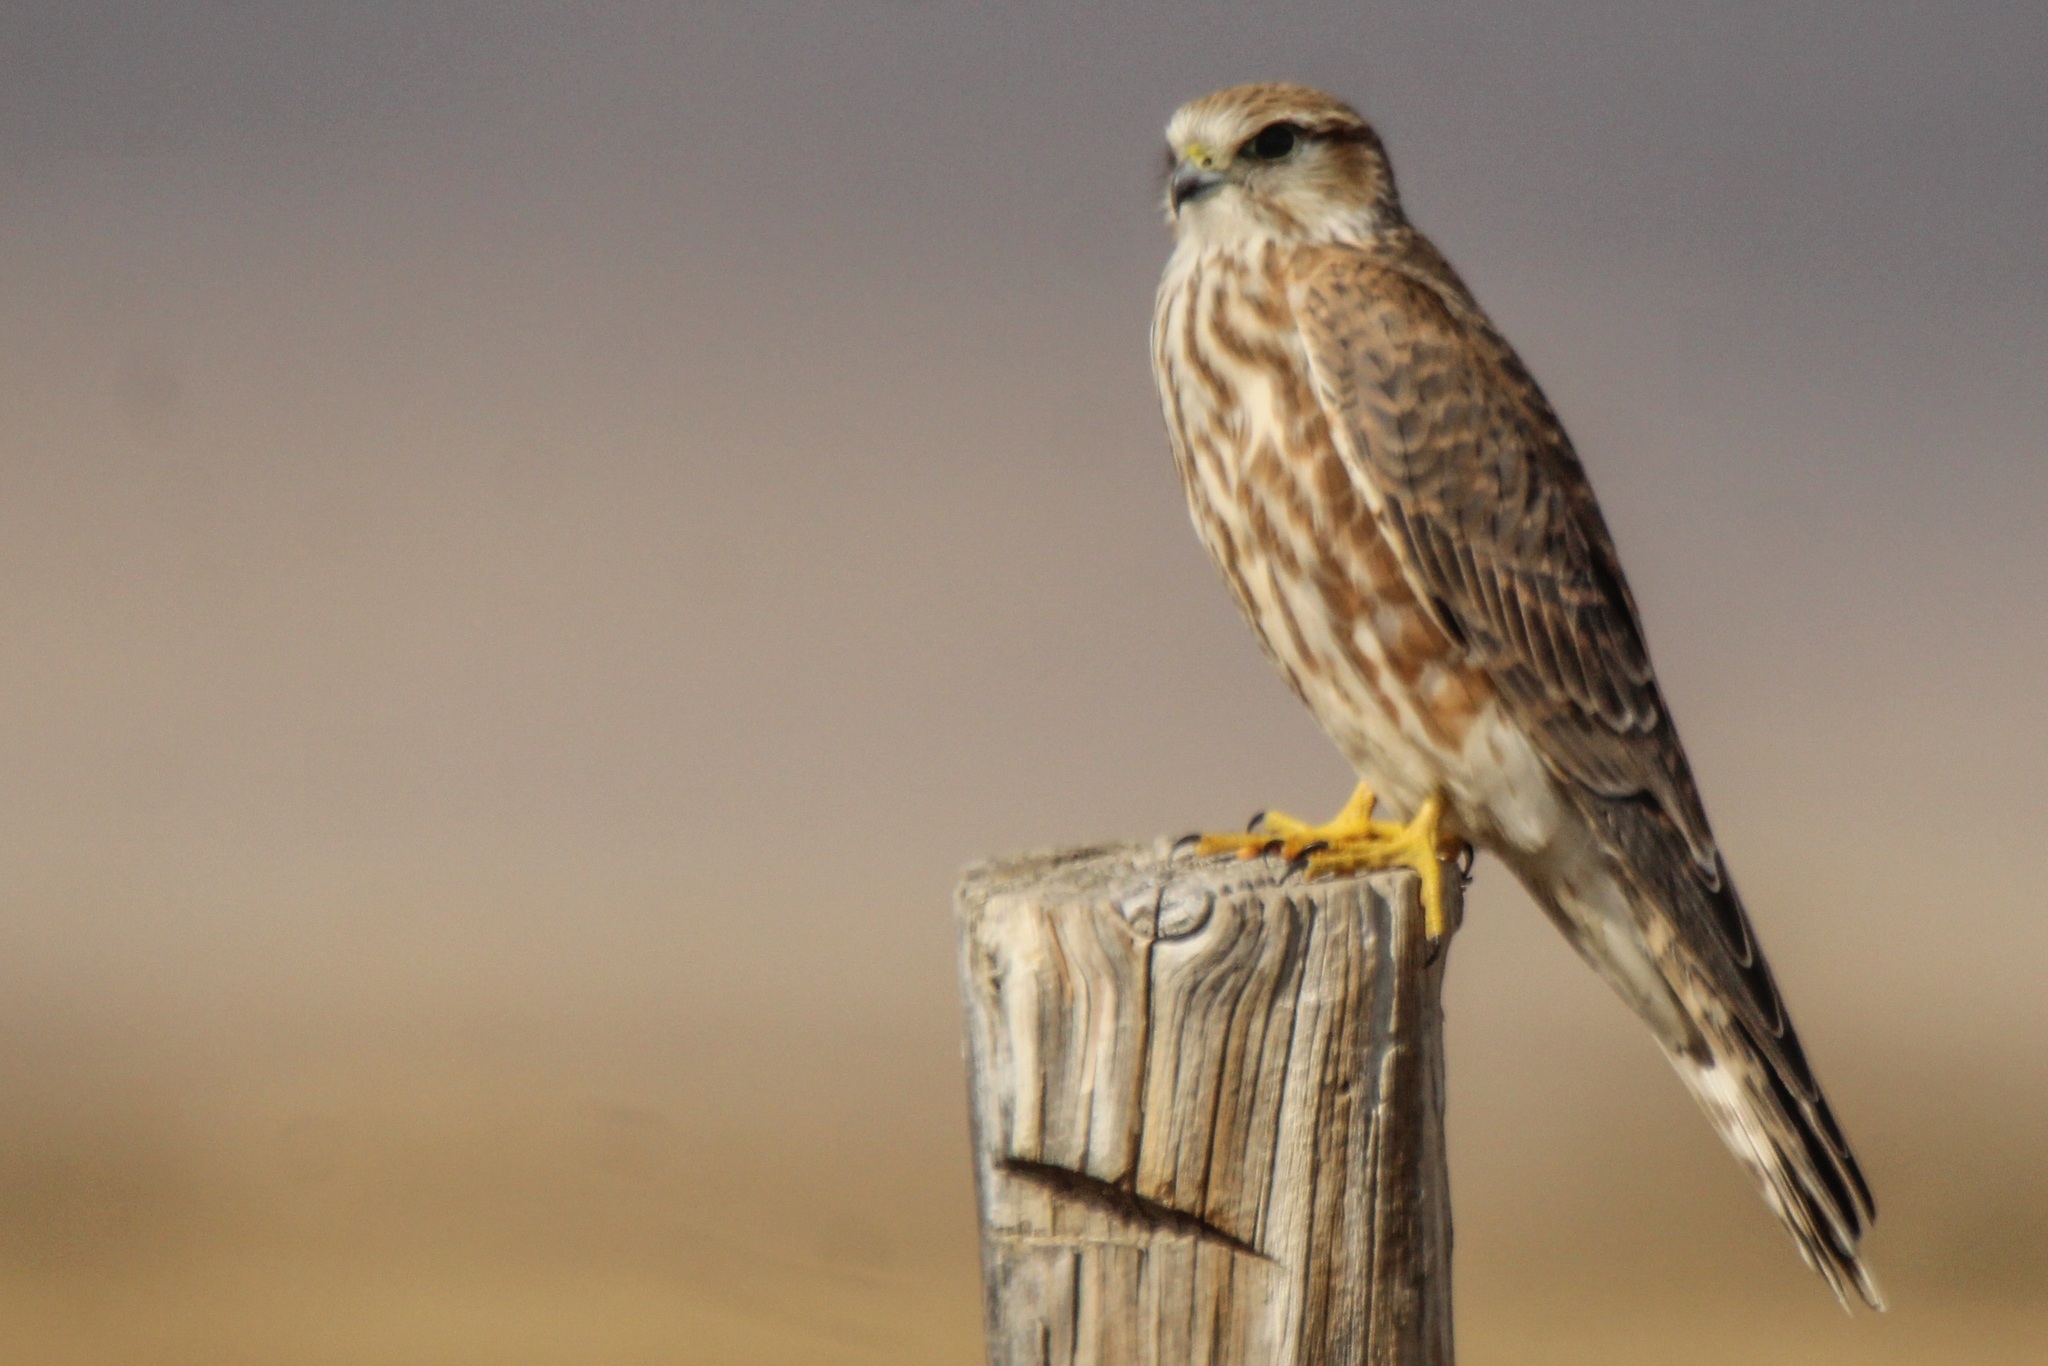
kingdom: Animalia
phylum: Chordata
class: Aves
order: Falconiformes
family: Falconidae
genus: Falco
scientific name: Falco columbarius
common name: Merlin
